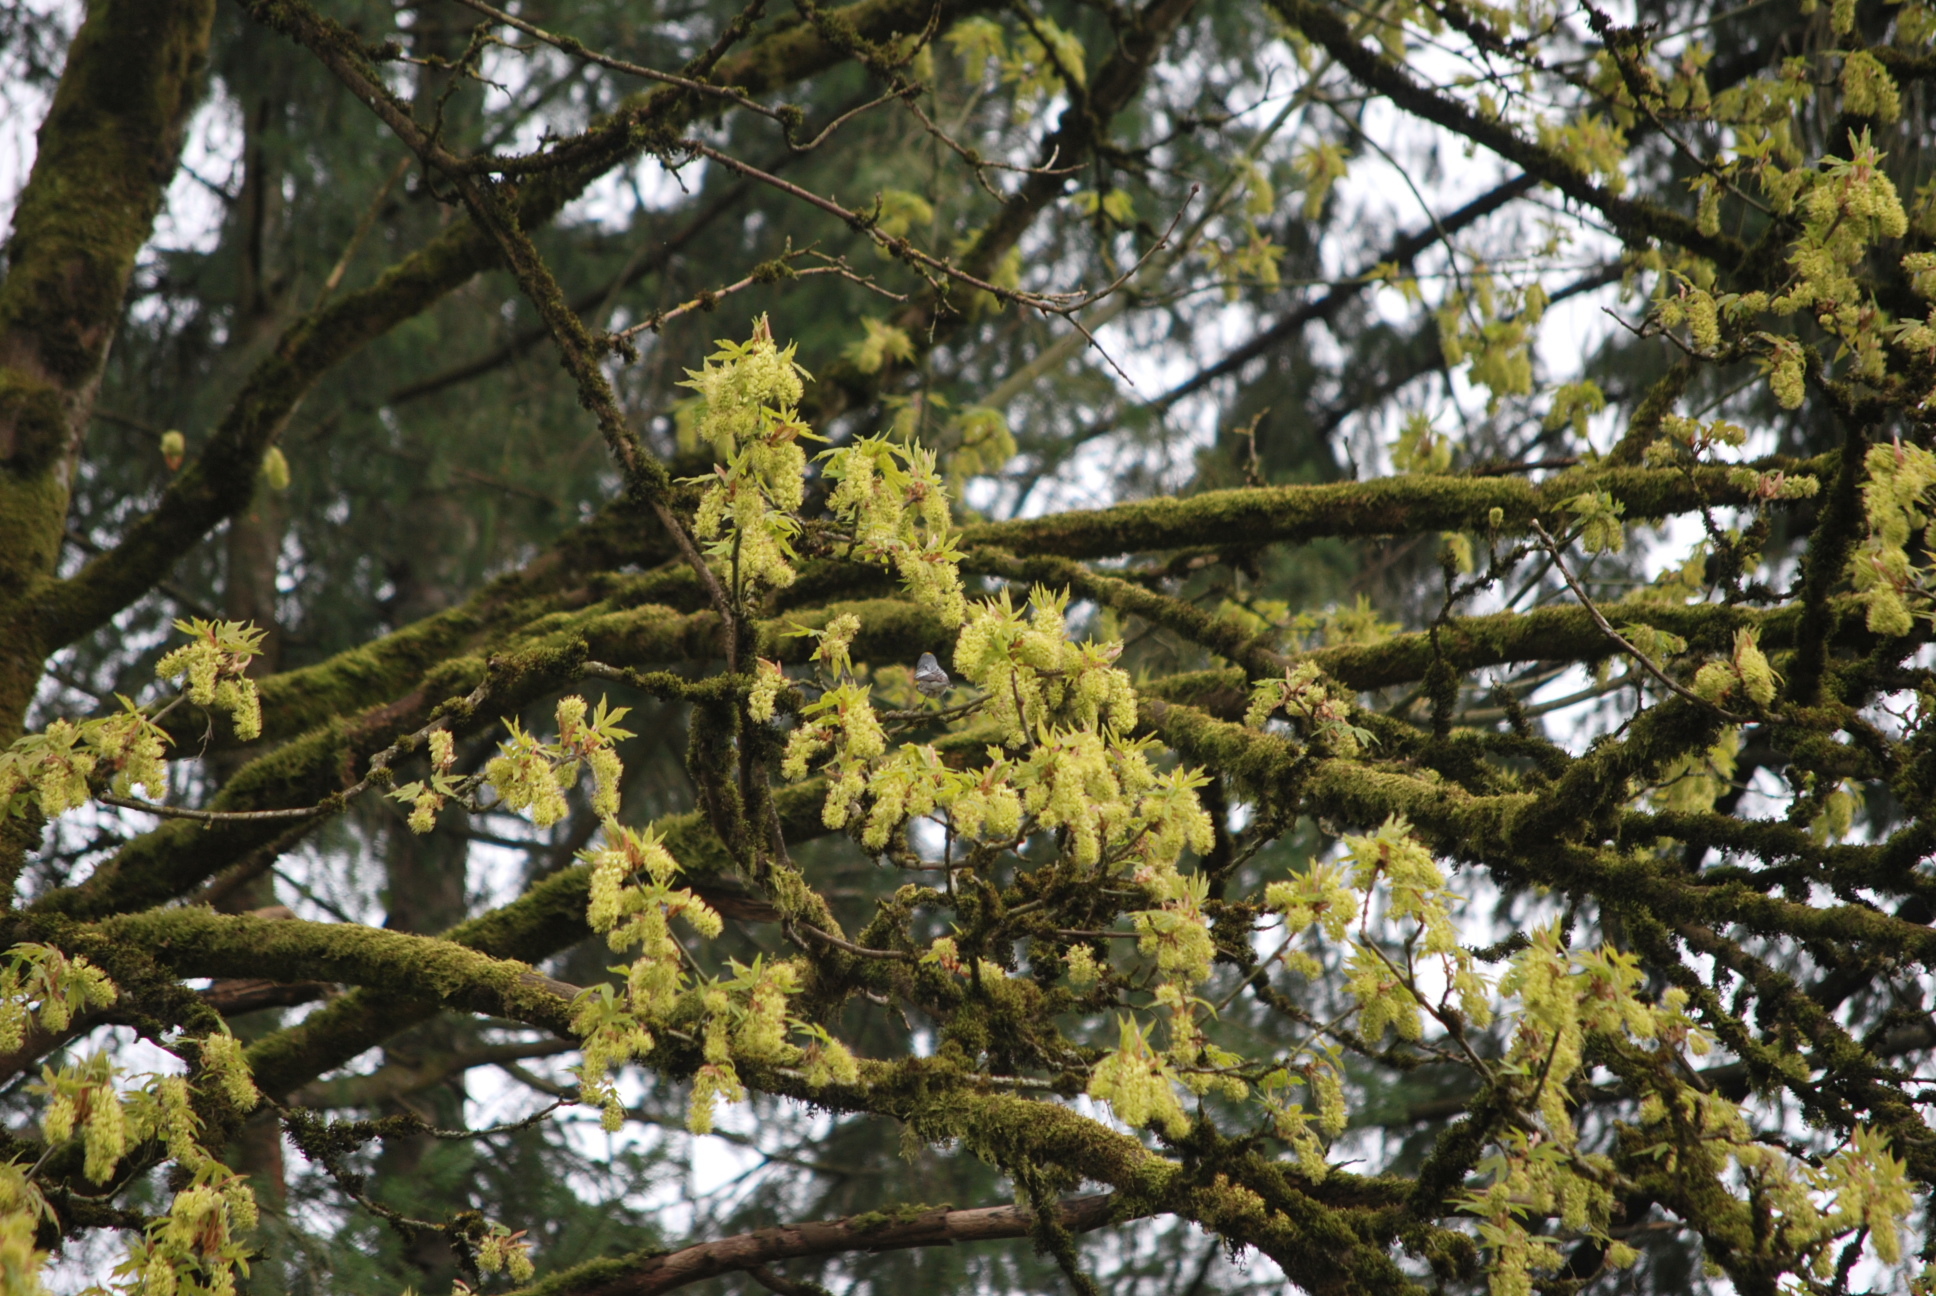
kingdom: Animalia
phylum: Chordata
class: Aves
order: Passeriformes
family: Parulidae
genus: Setophaga
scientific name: Setophaga coronata
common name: Myrtle warbler
